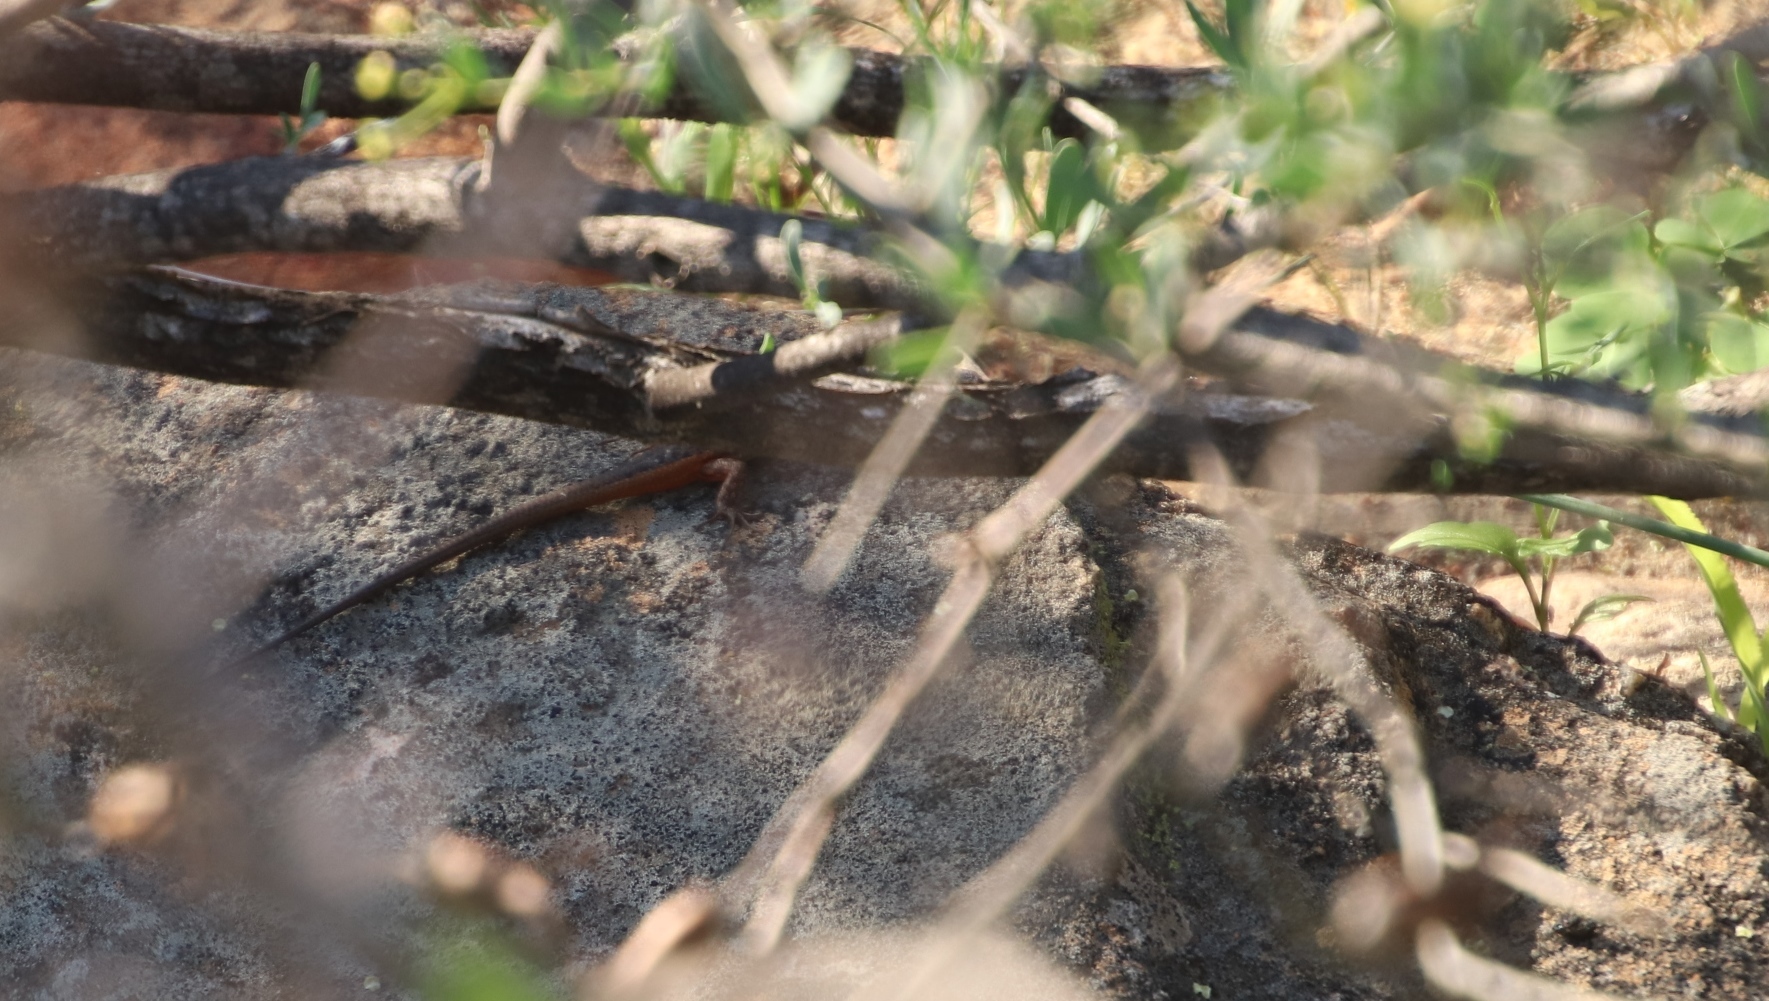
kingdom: Animalia
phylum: Chordata
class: Squamata
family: Scincidae
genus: Trachylepis
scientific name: Trachylepis homalocephala
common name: Red-sided skink
